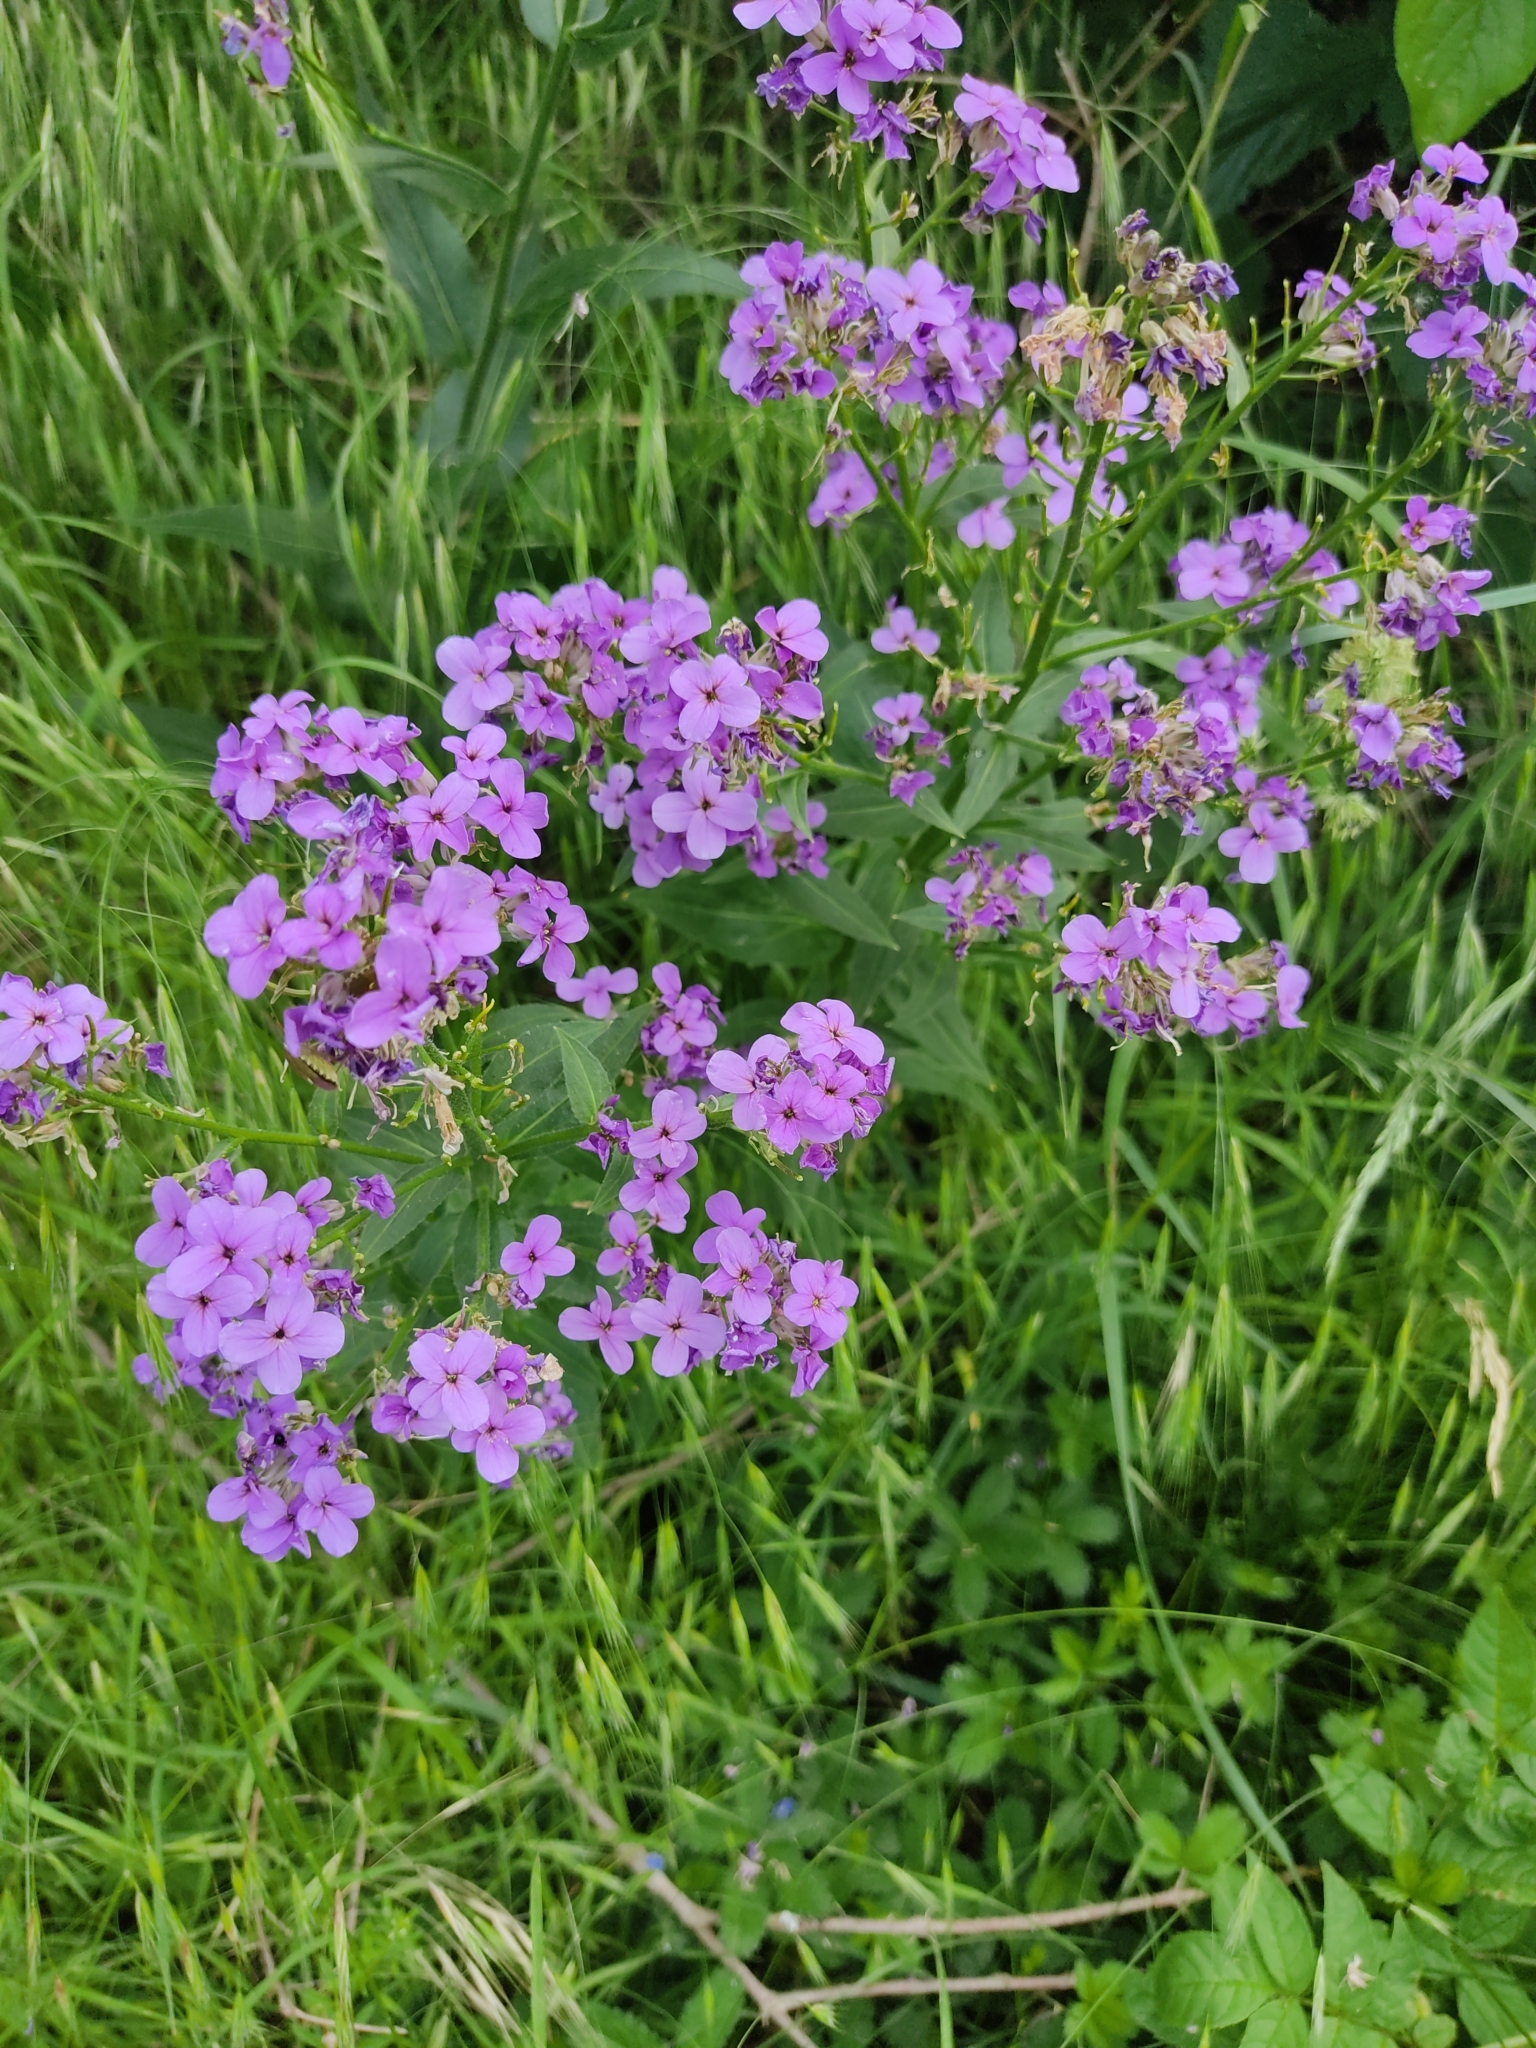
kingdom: Plantae
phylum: Tracheophyta
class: Magnoliopsida
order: Brassicales
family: Brassicaceae
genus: Hesperis
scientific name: Hesperis matronalis
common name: Dame's-violet
